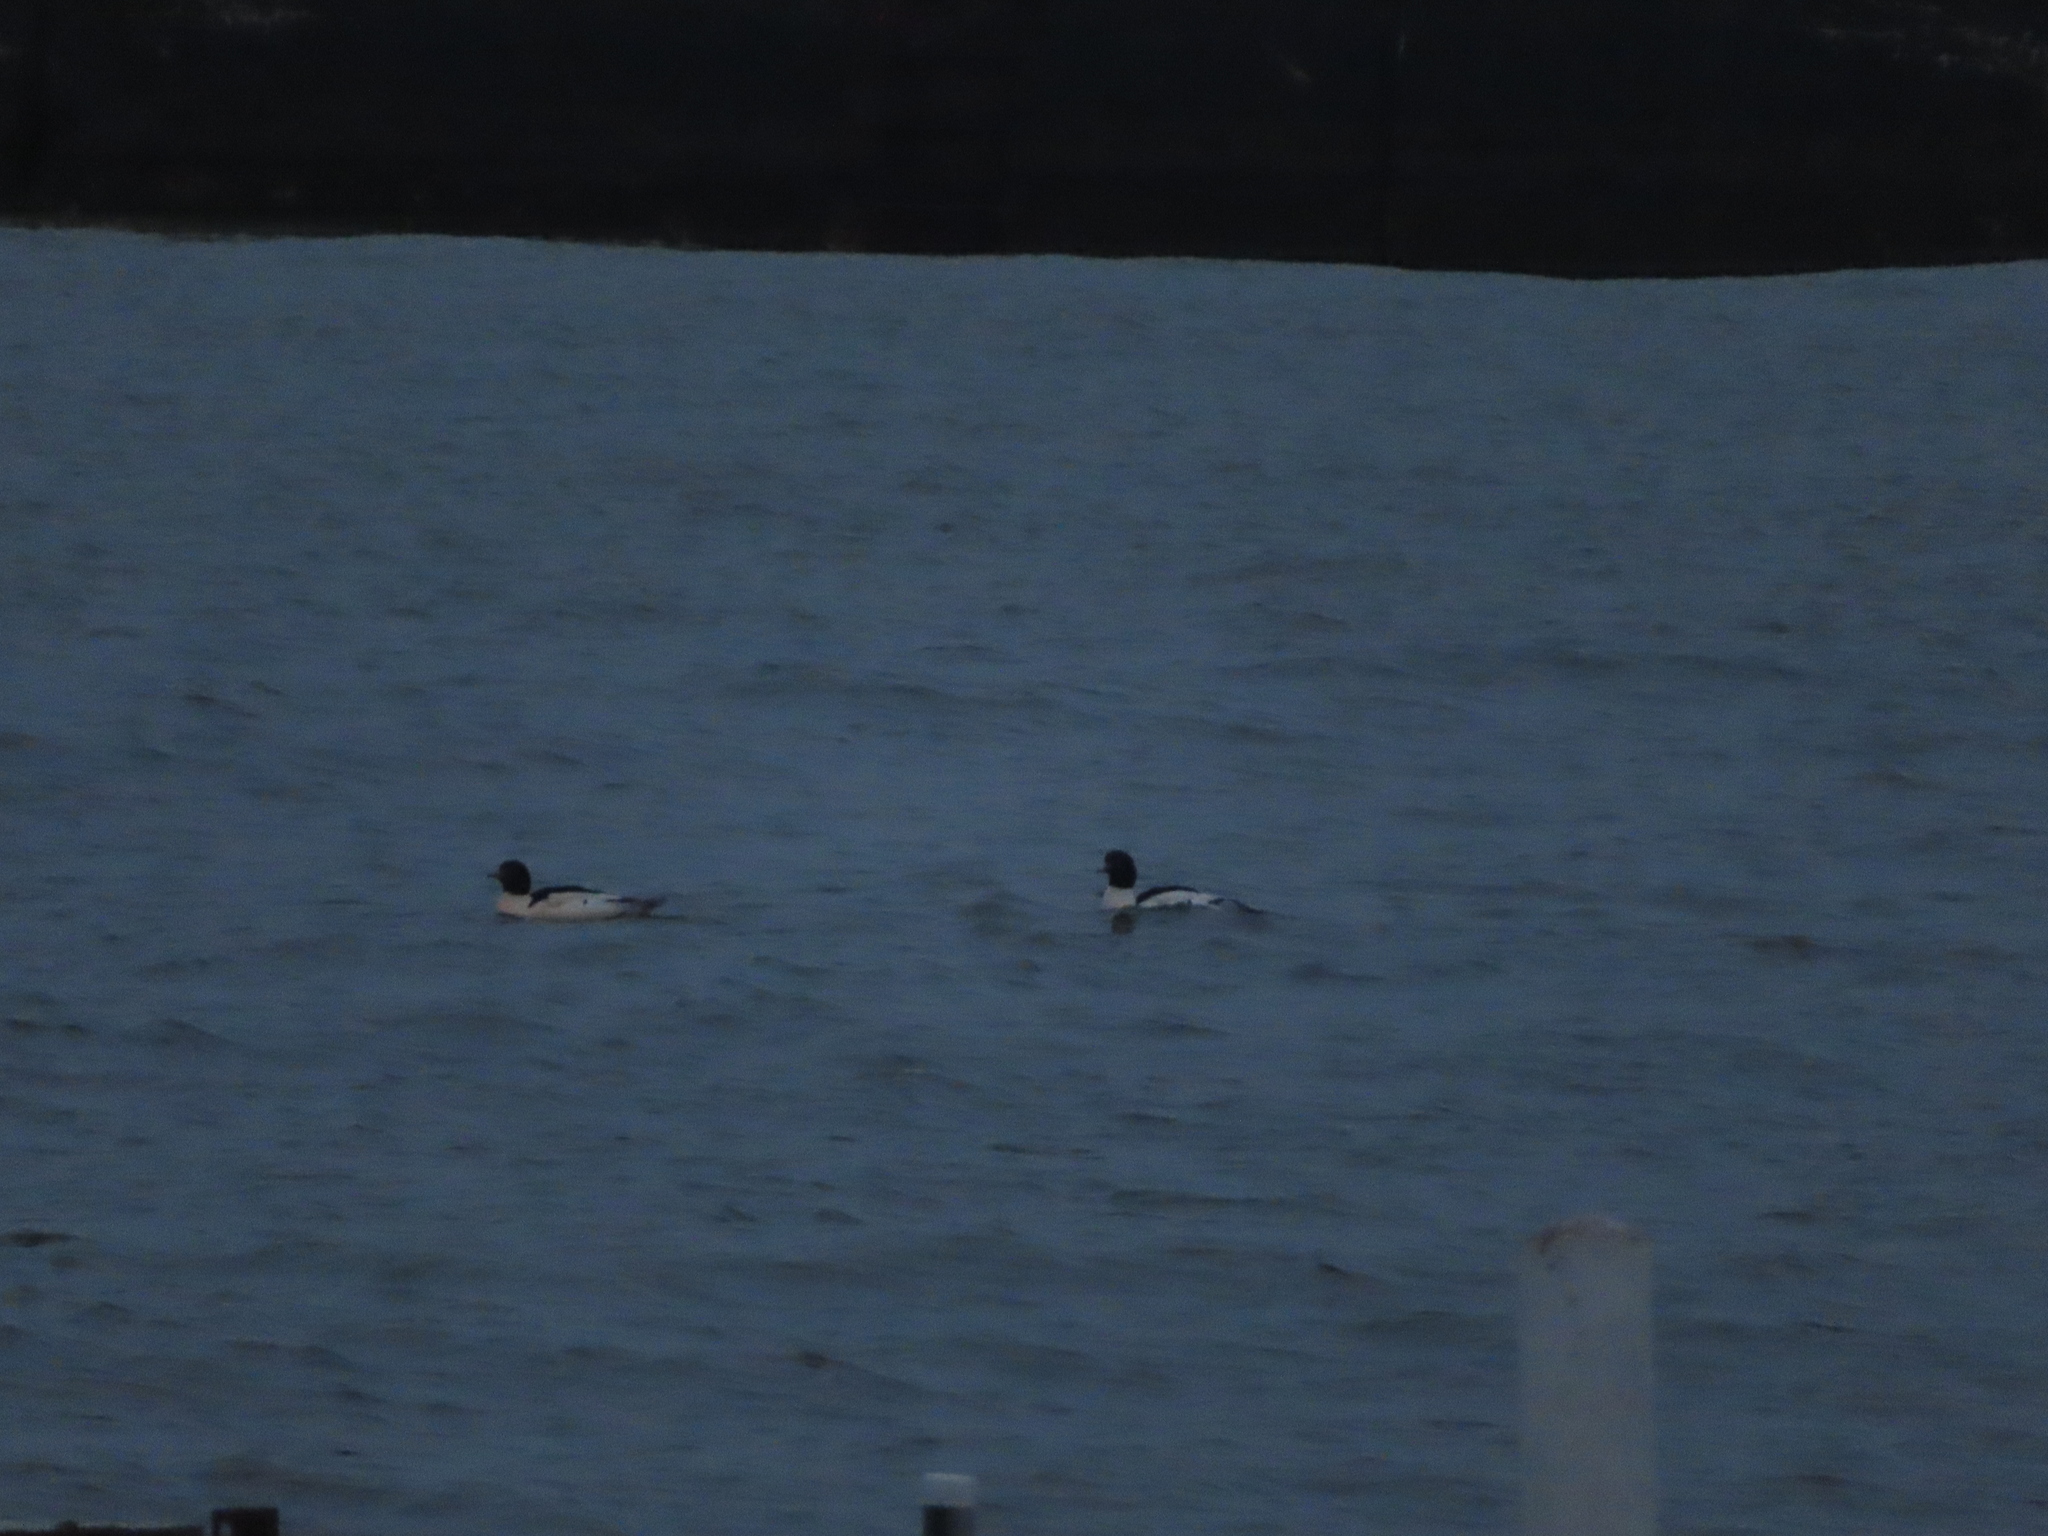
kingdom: Animalia
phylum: Chordata
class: Aves
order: Anseriformes
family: Anatidae
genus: Mergus
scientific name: Mergus merganser
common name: Common merganser
